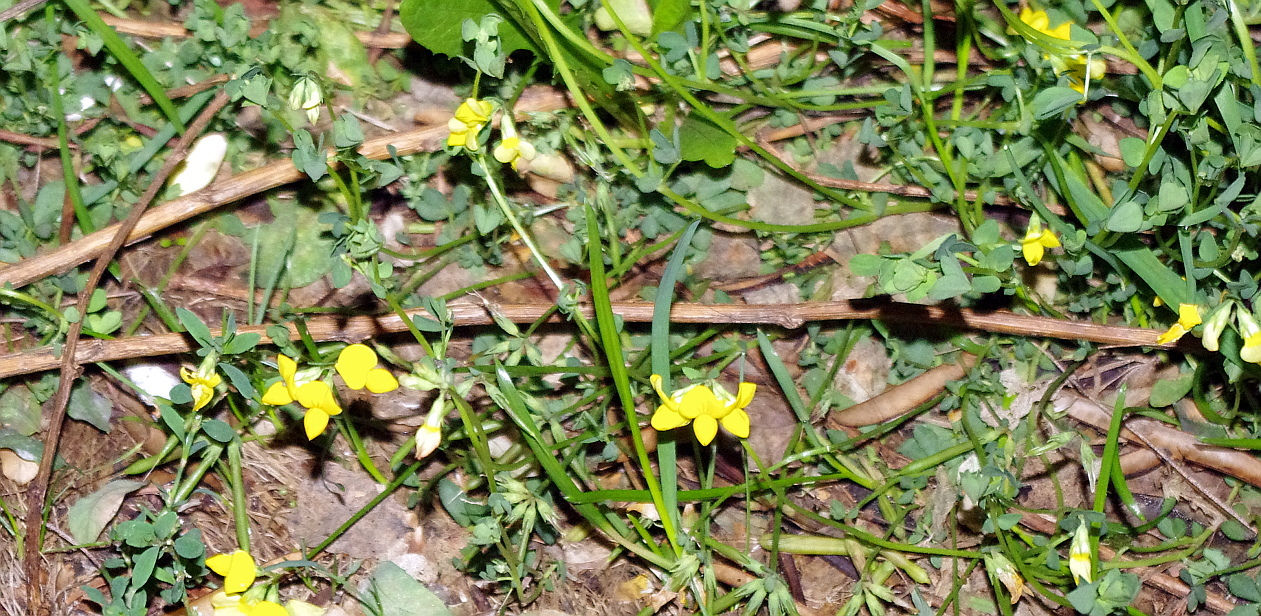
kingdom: Plantae
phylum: Tracheophyta
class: Magnoliopsida
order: Fabales
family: Fabaceae
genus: Lotus
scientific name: Lotus corniculatus
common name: Common bird's-foot-trefoil
